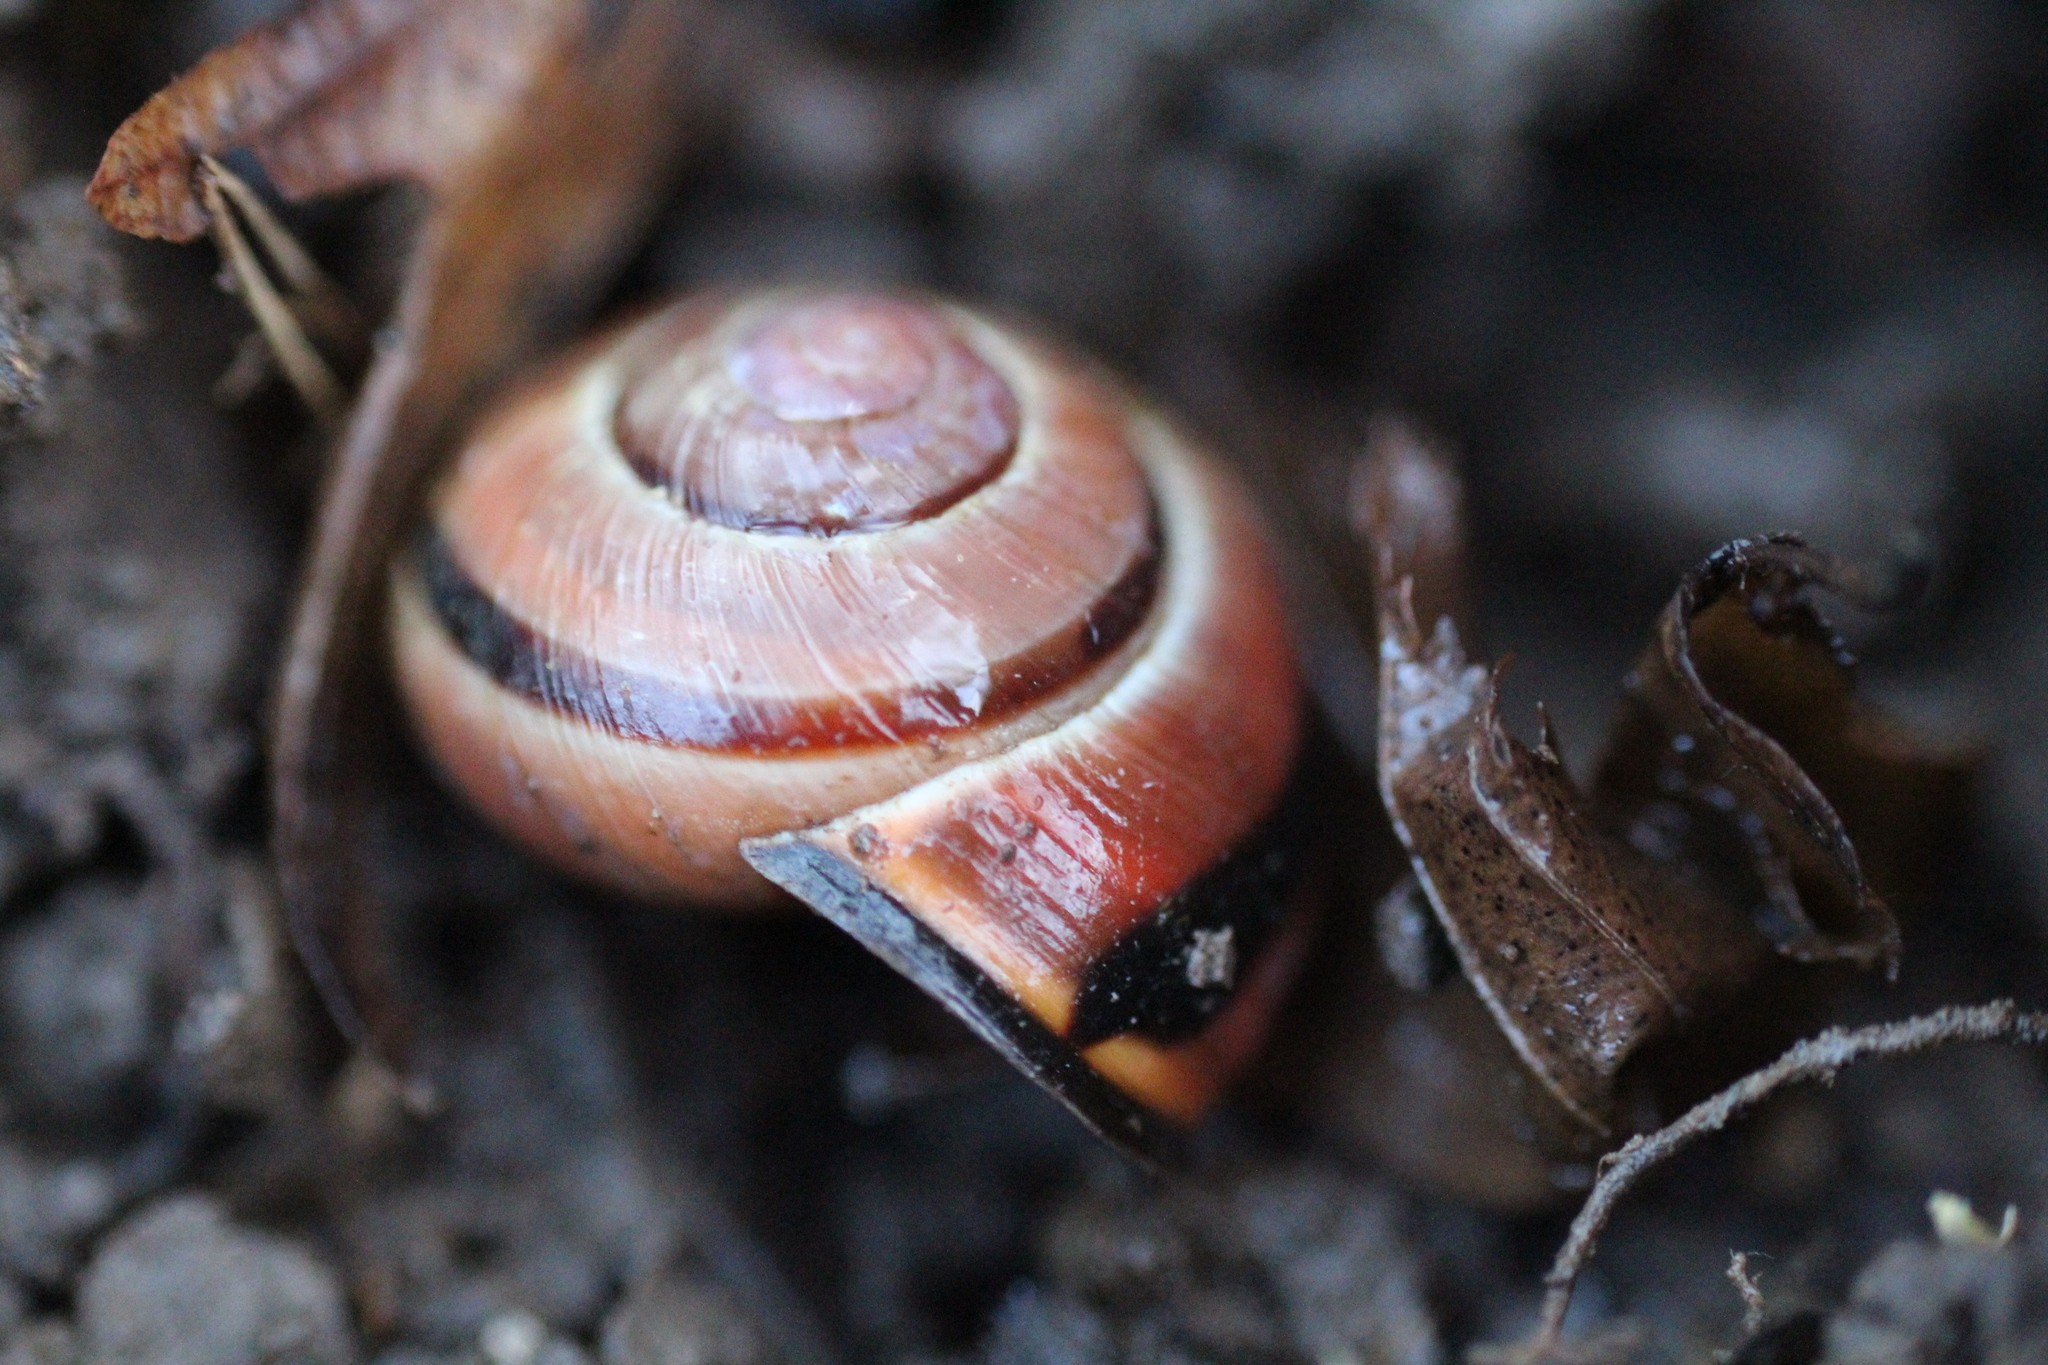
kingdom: Animalia
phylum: Mollusca
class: Gastropoda
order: Stylommatophora
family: Helicidae
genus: Cepaea
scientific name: Cepaea nemoralis
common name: Grovesnail
